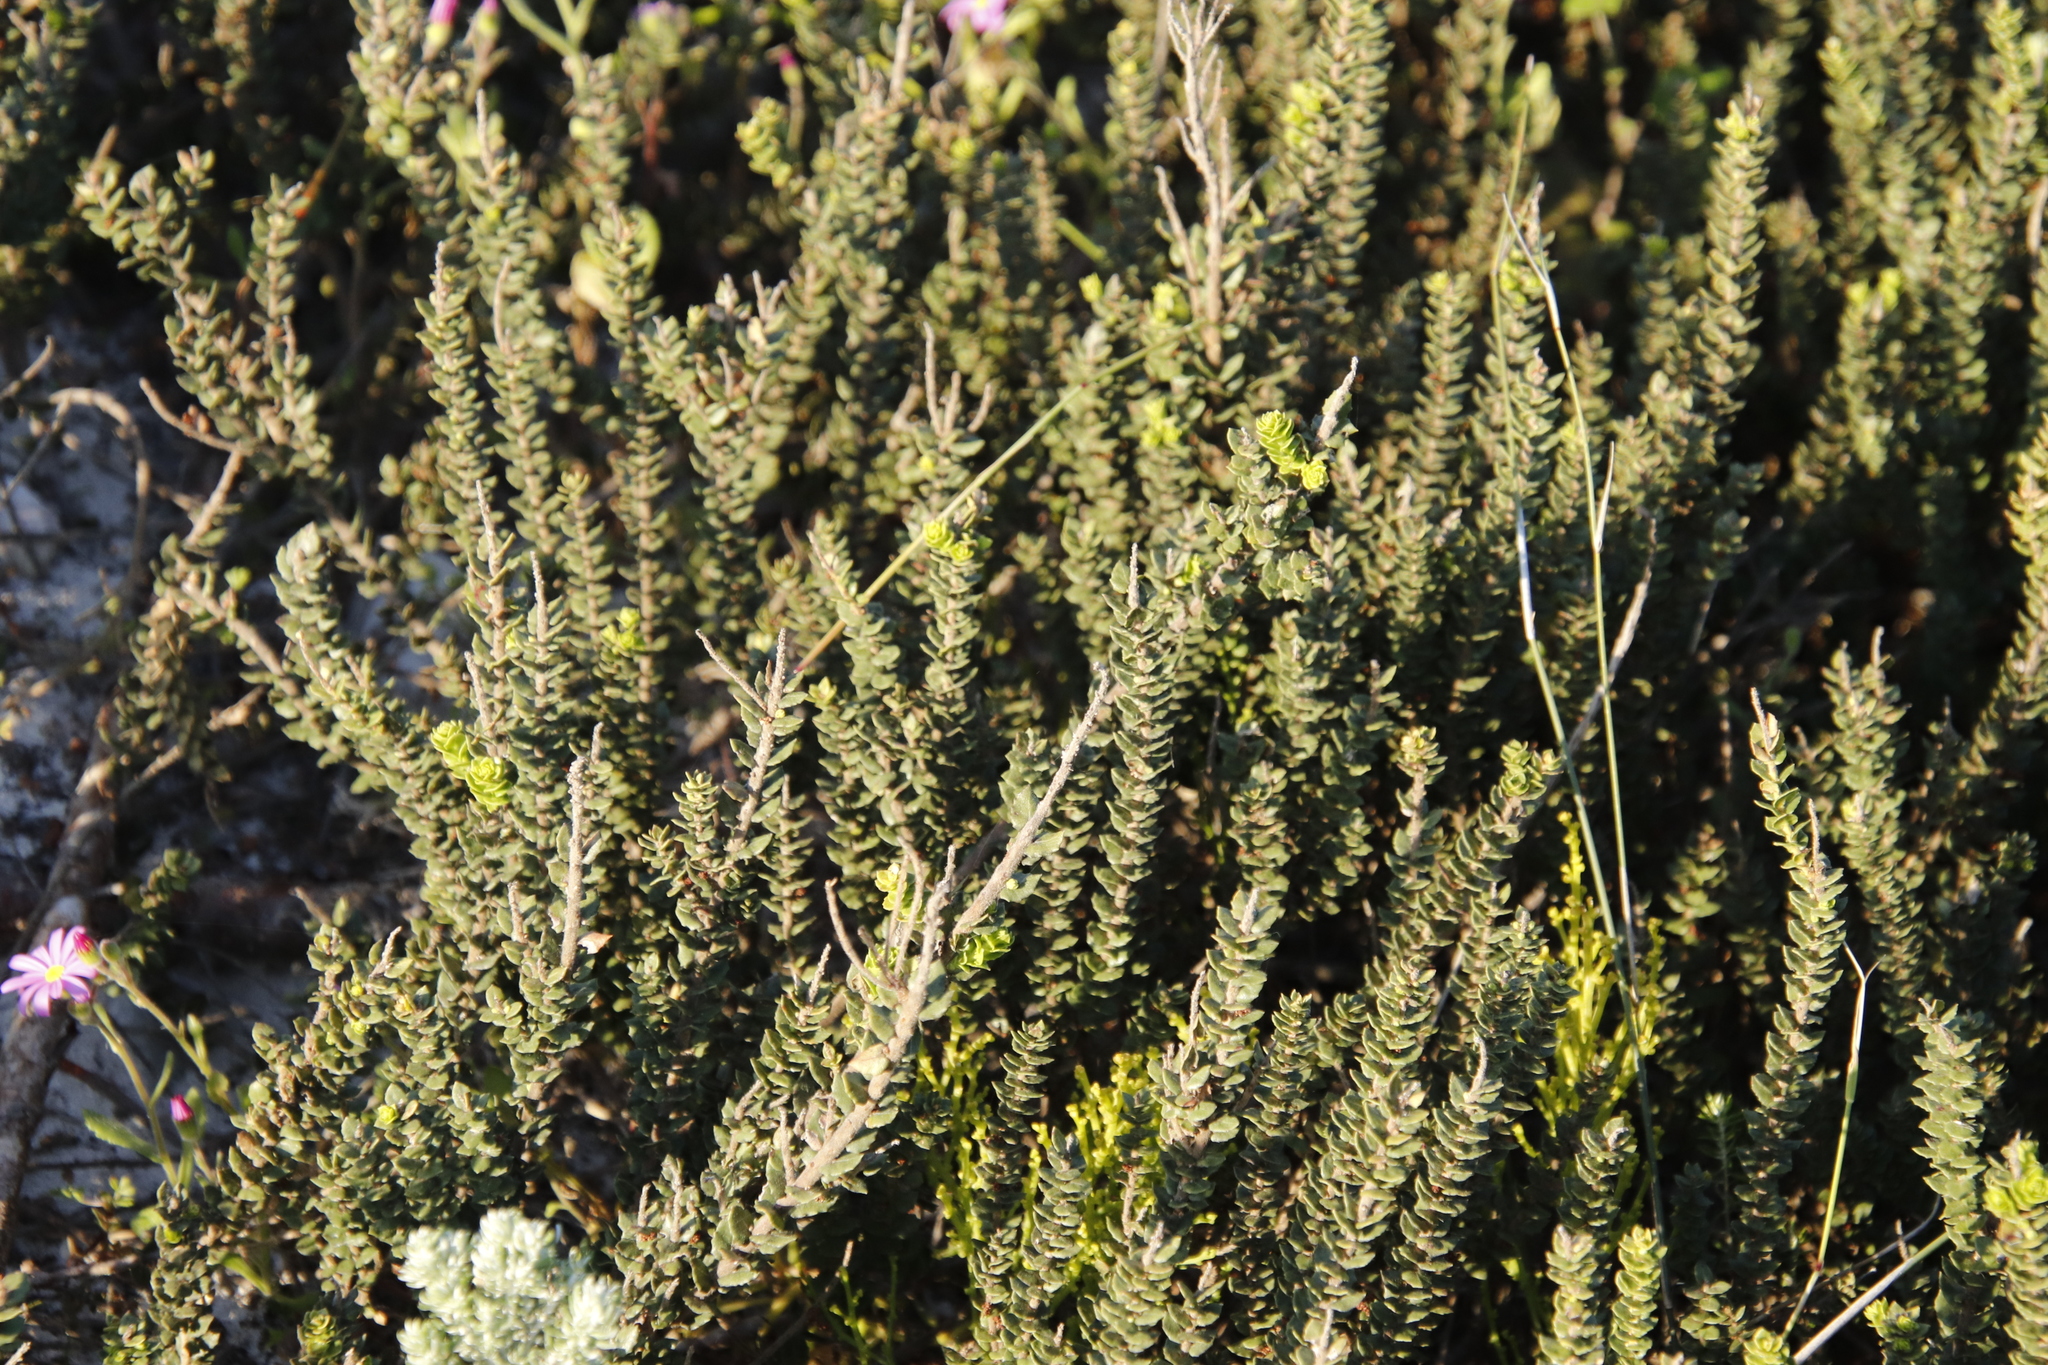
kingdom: Plantae
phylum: Tracheophyta
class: Magnoliopsida
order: Fagales
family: Myricaceae
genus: Morella
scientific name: Morella cordifolia
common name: Waxberry
